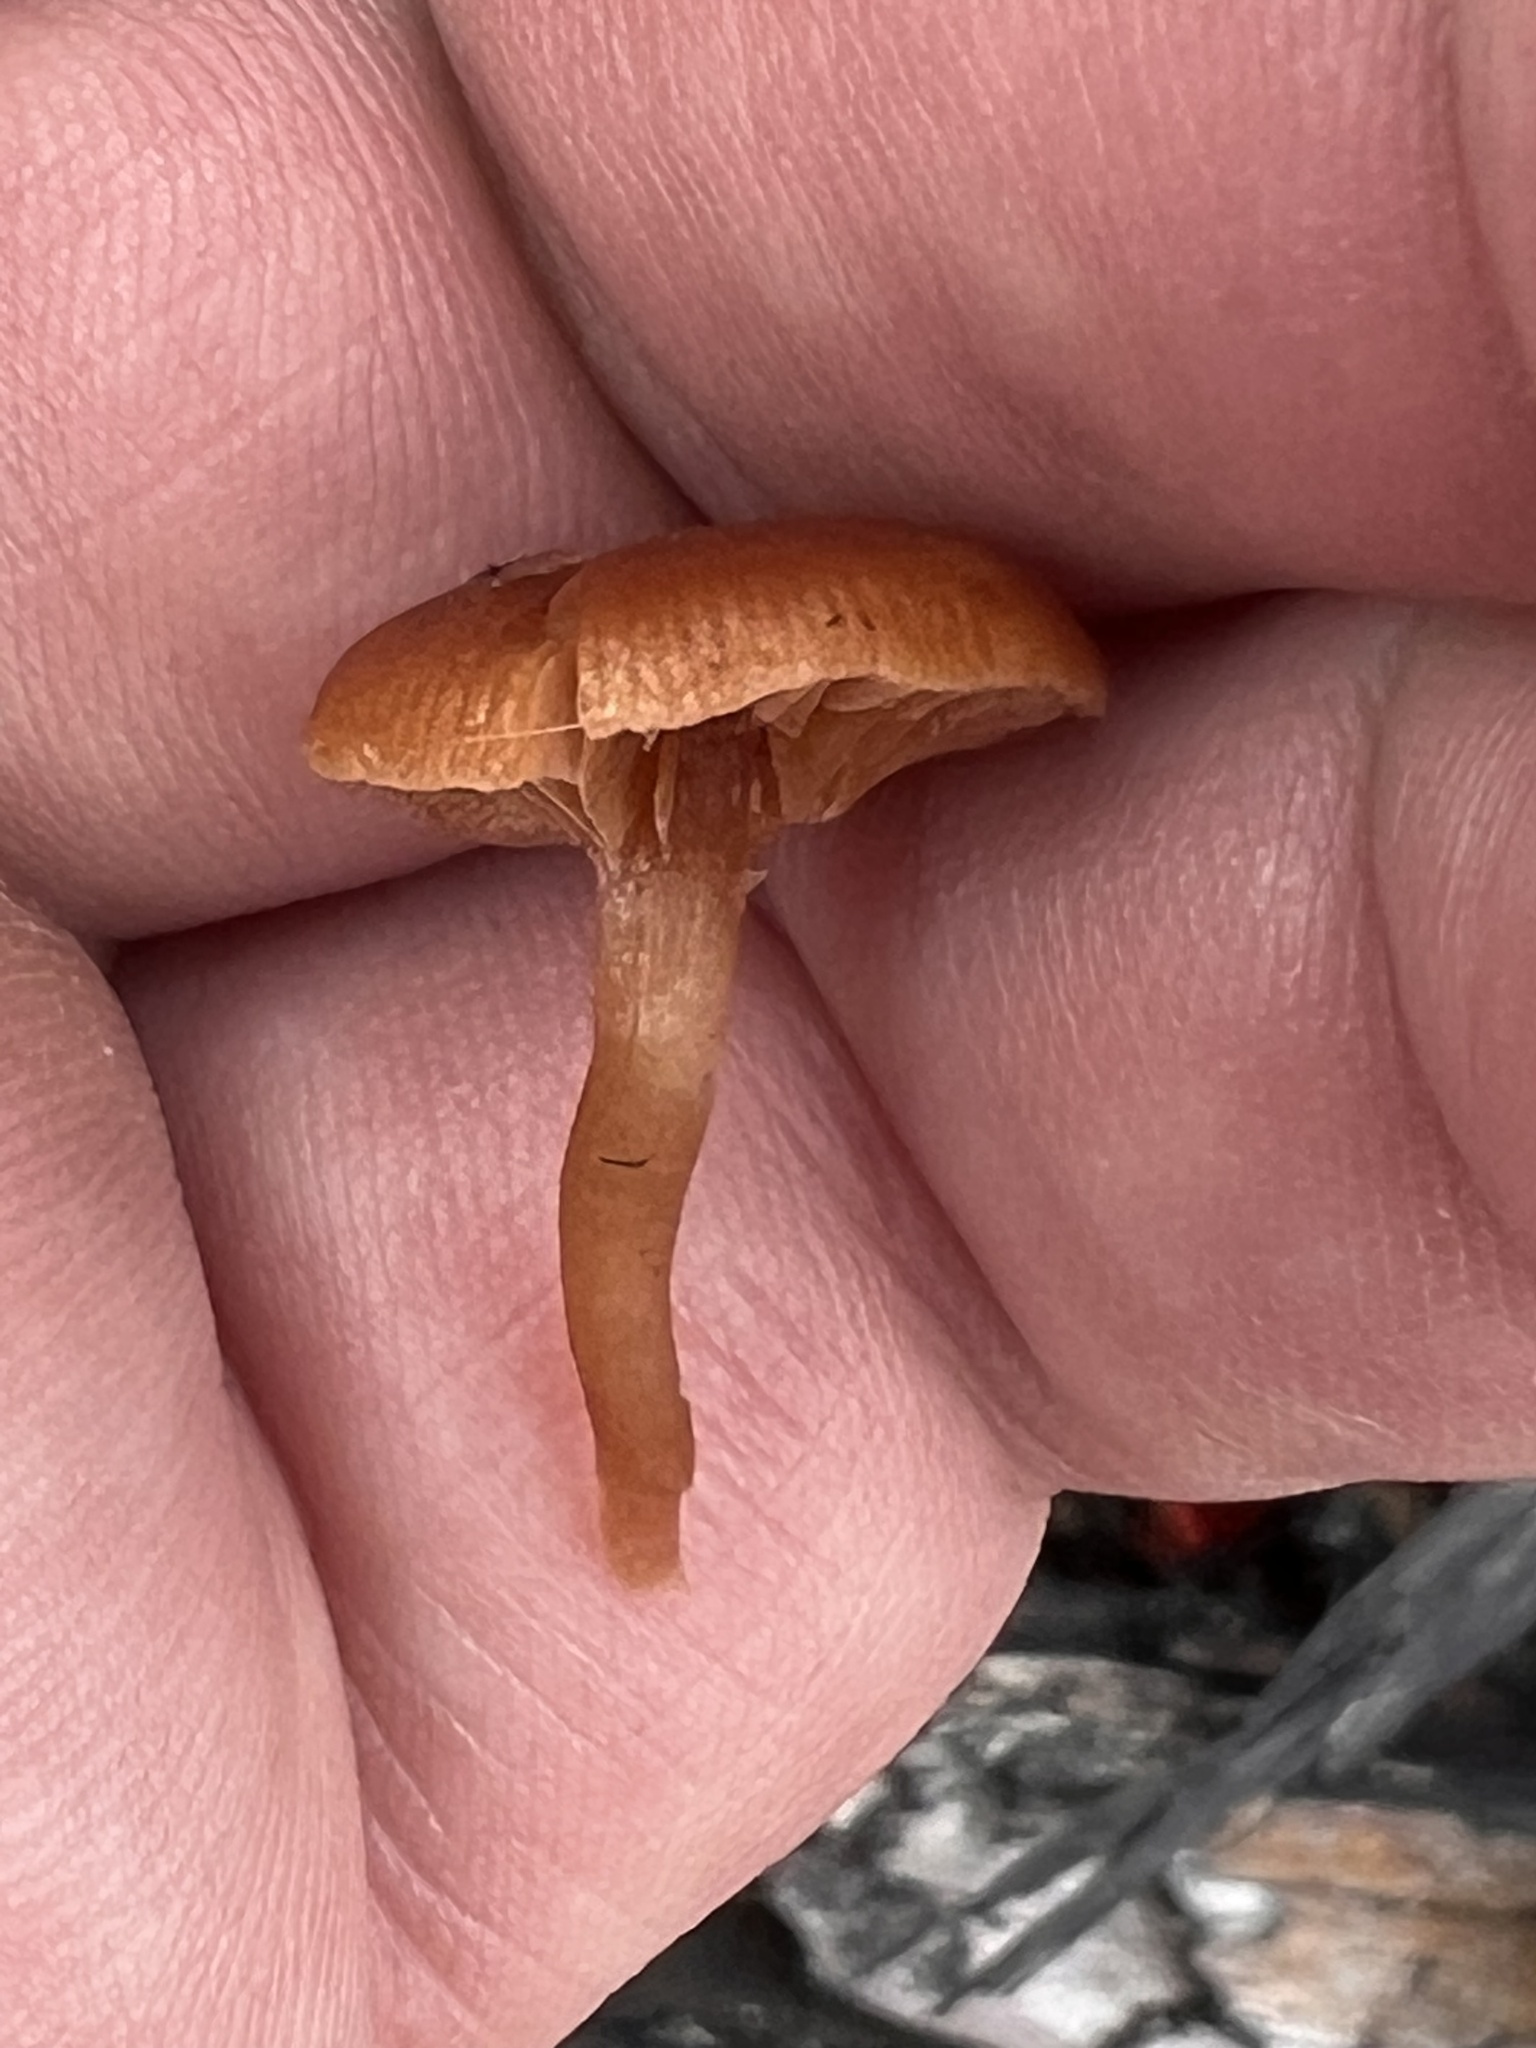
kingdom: Fungi
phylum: Basidiomycota
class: Agaricomycetes
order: Agaricales
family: Tubariaceae
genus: Tubaria
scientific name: Tubaria furfuracea
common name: Scurfy twiglet
